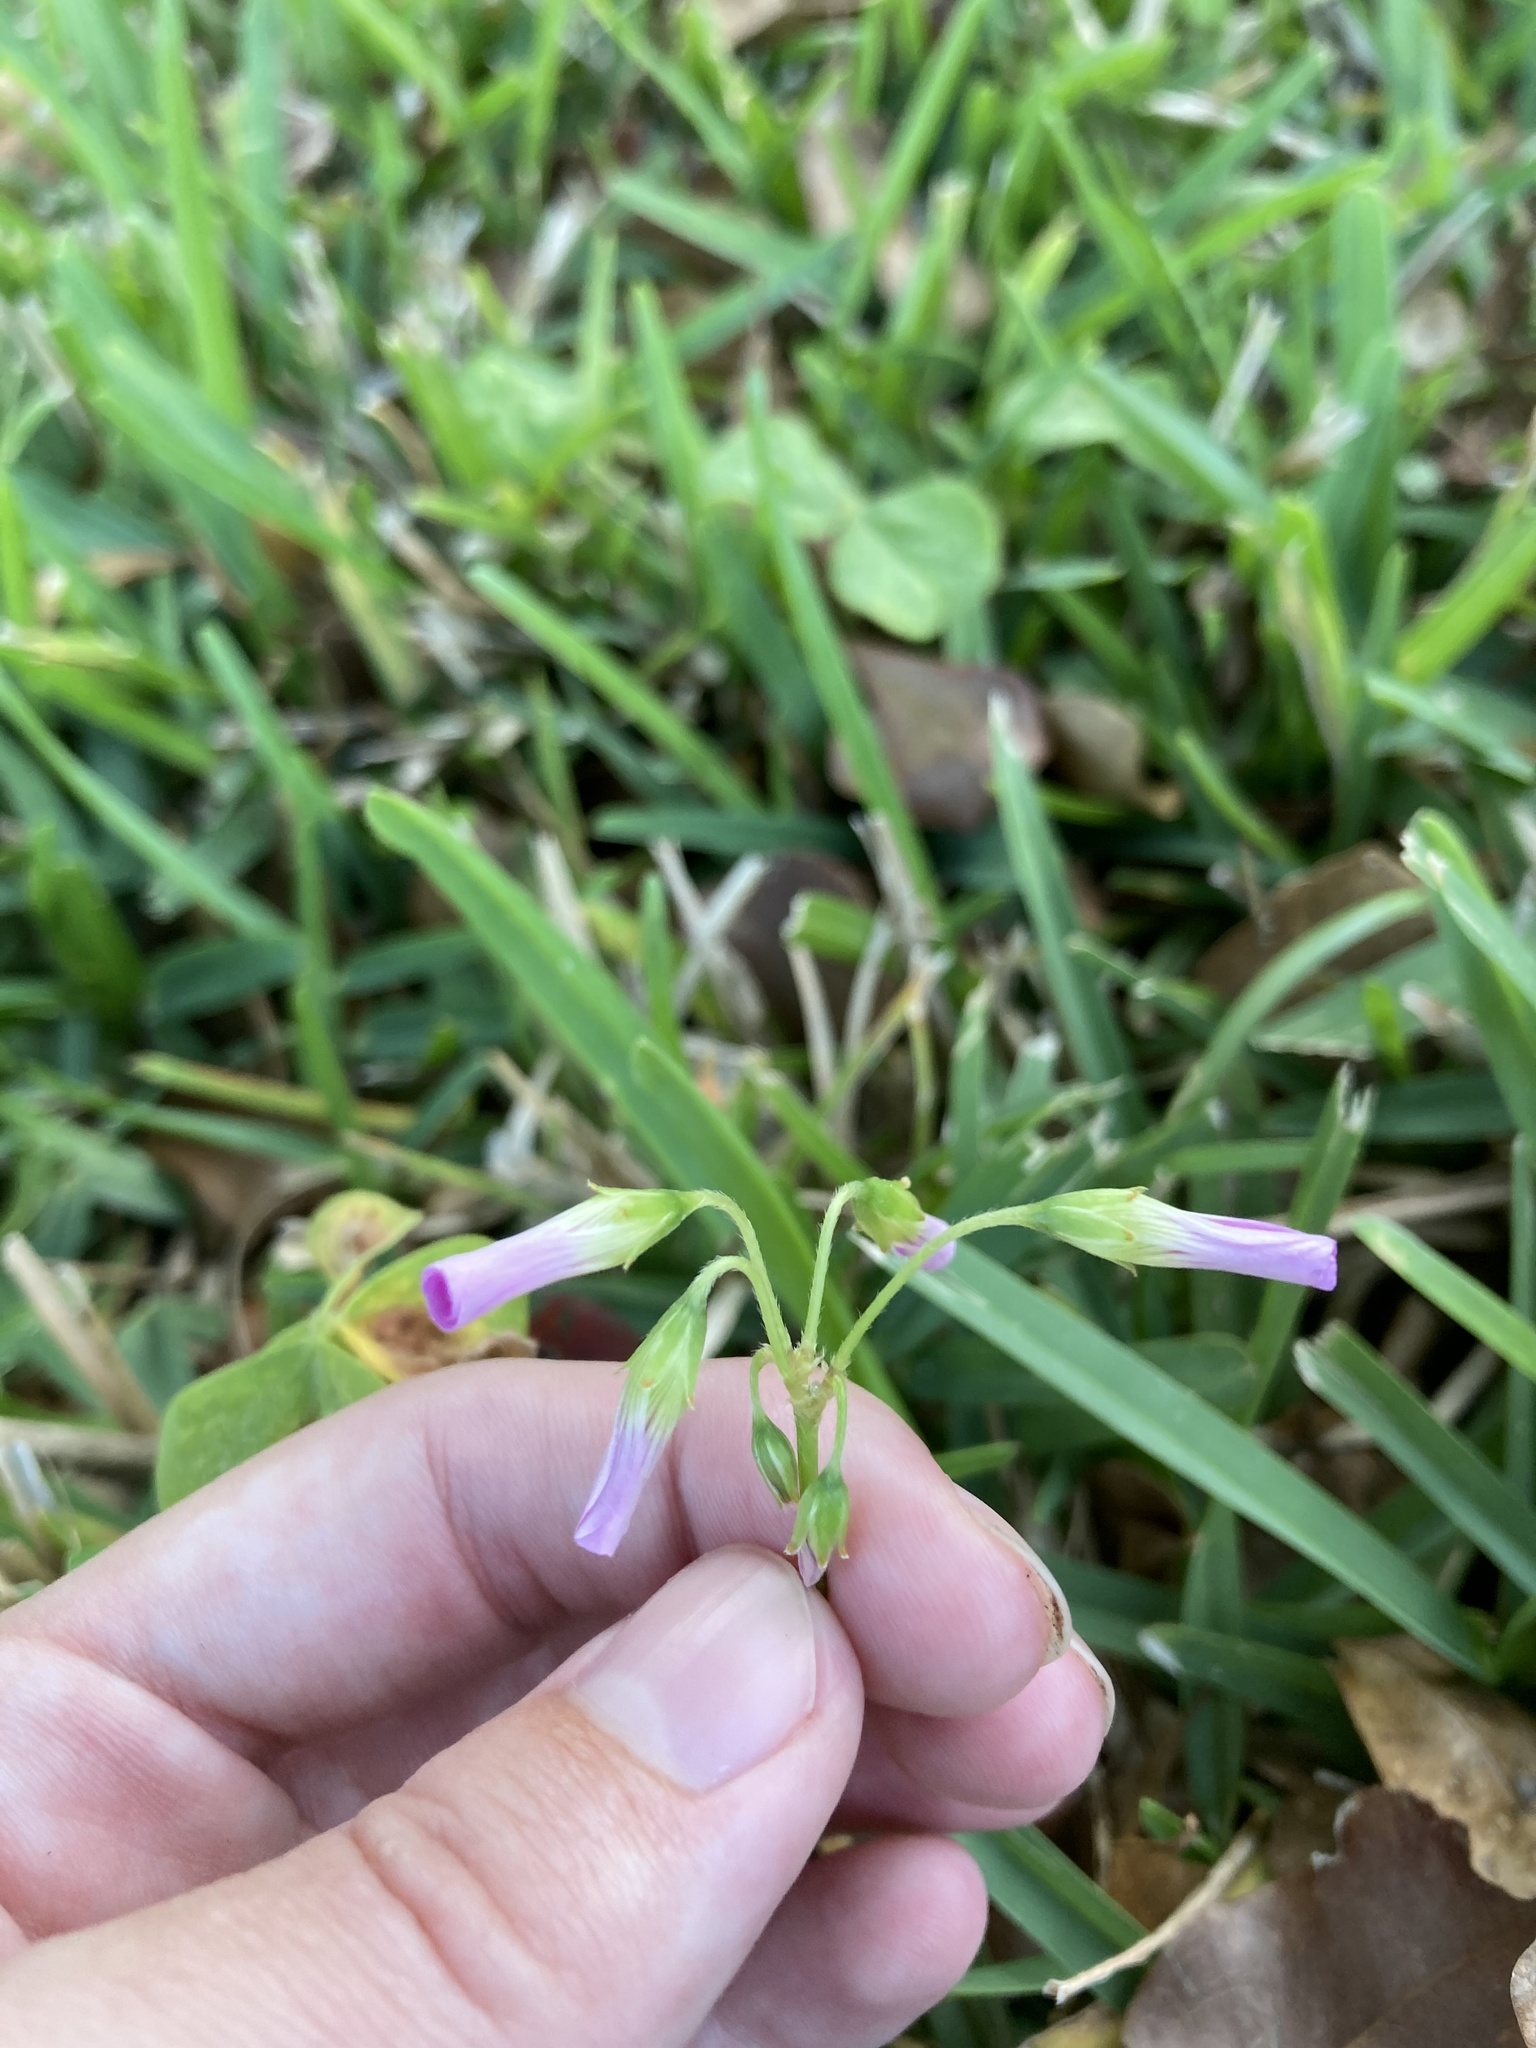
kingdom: Plantae
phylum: Tracheophyta
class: Magnoliopsida
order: Oxalidales
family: Oxalidaceae
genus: Oxalis
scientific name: Oxalis debilis
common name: Large-flowered pink-sorrel
